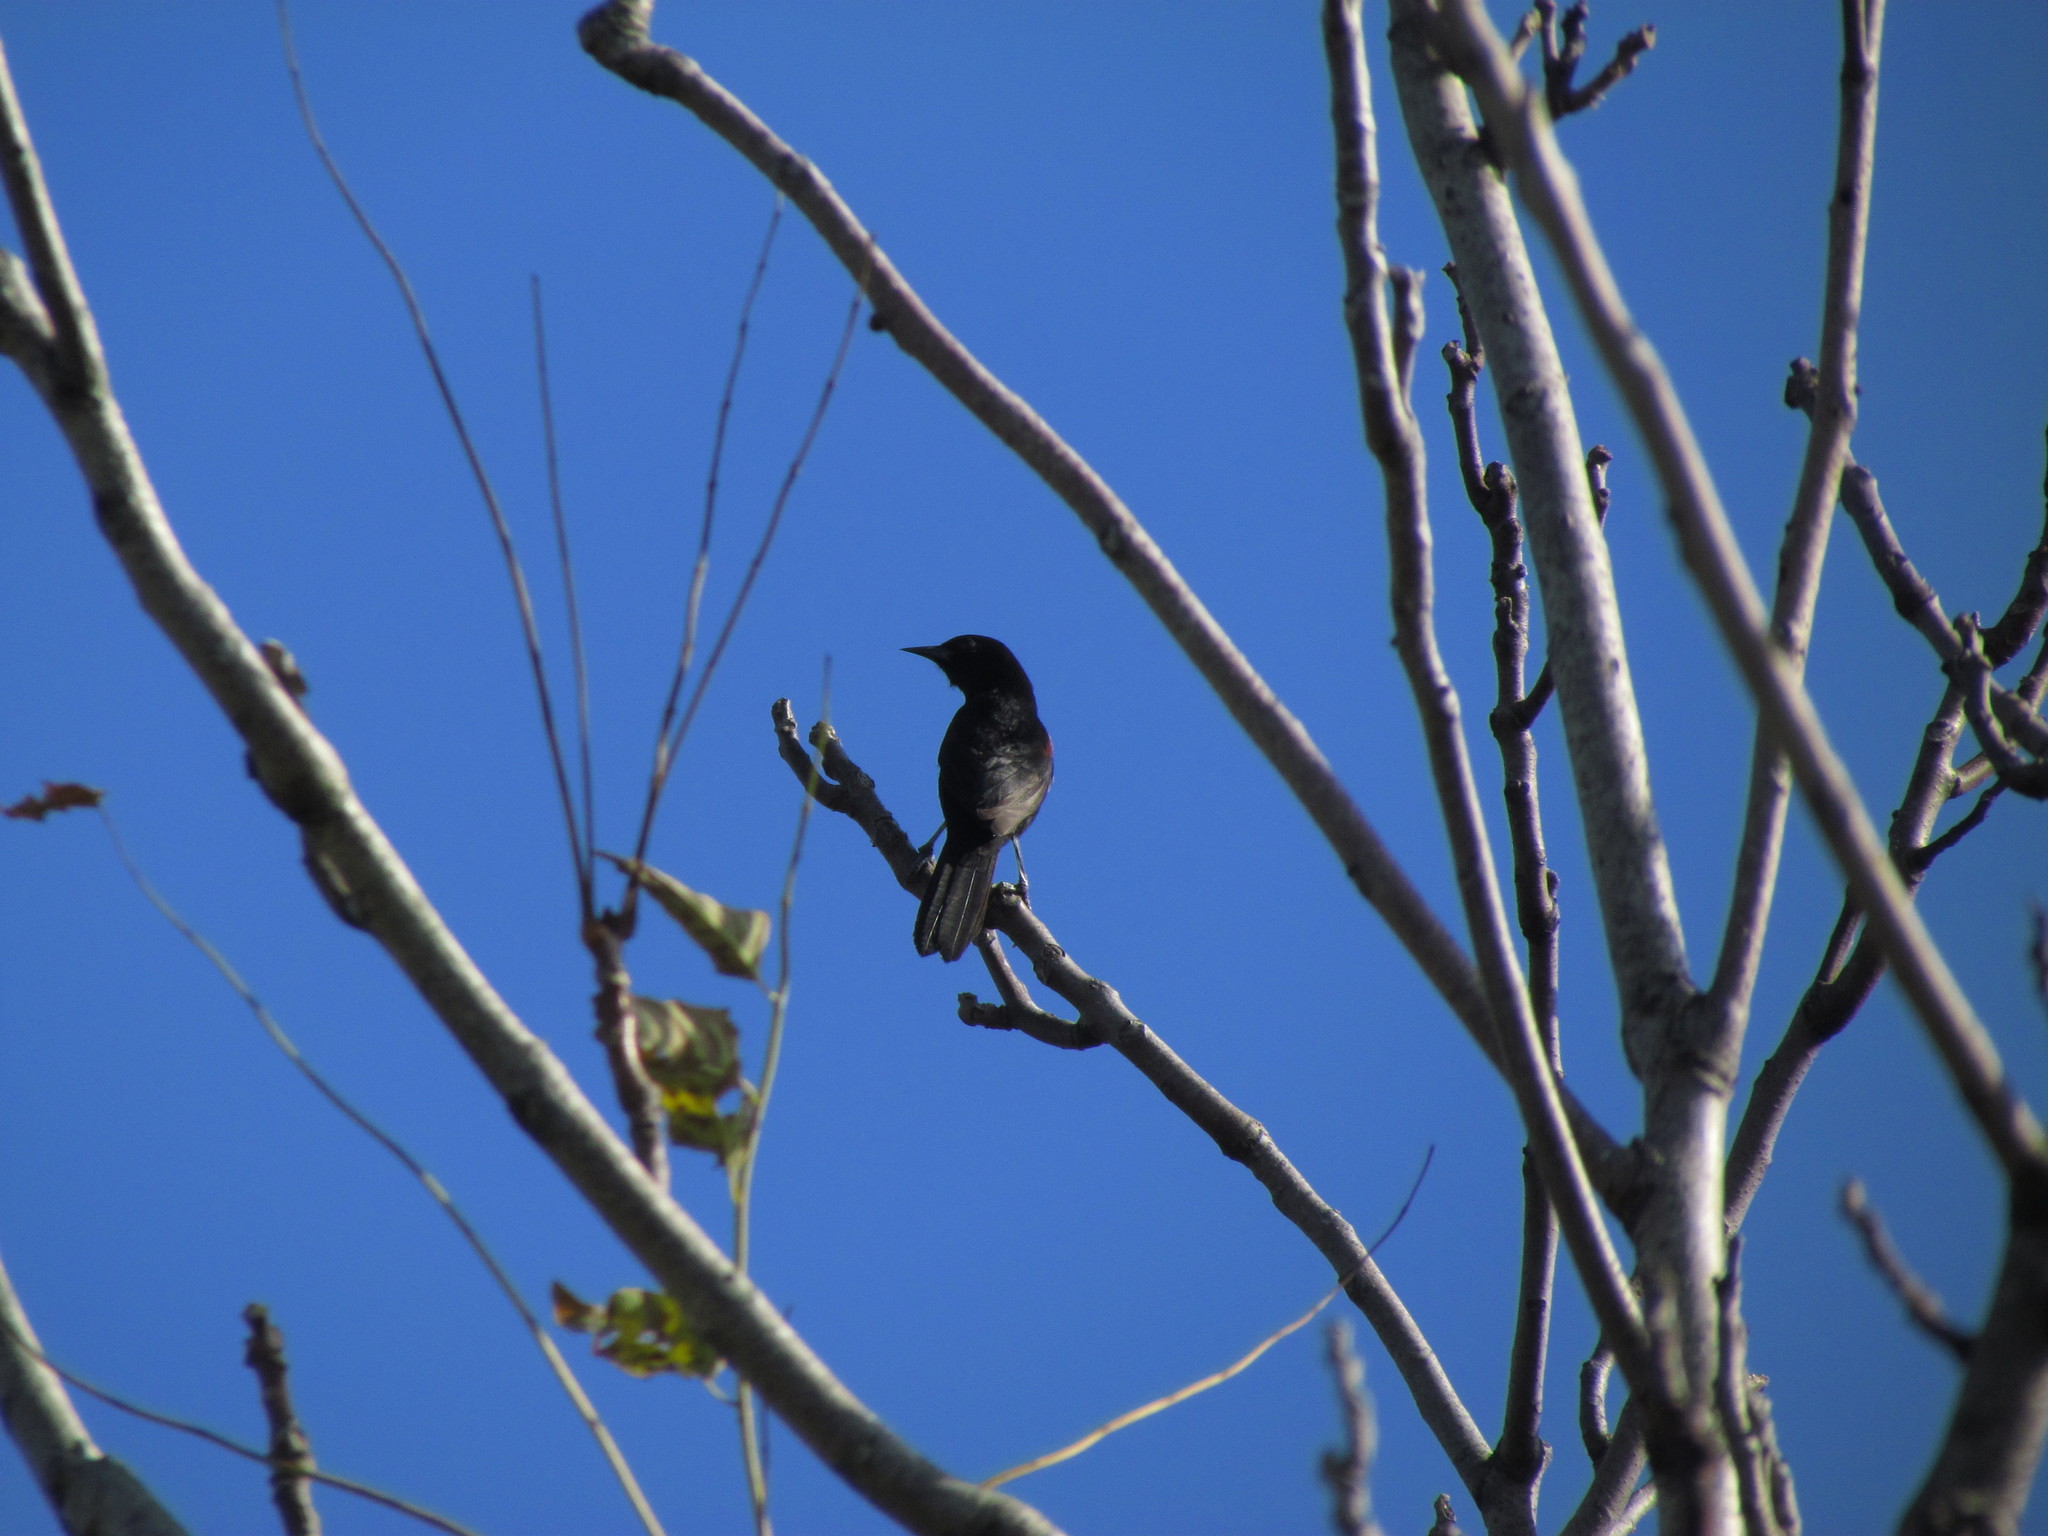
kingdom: Animalia
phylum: Chordata
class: Aves
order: Passeriformes
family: Icteridae
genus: Icterus
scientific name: Icterus cayanensis
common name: Epaulet oriole
